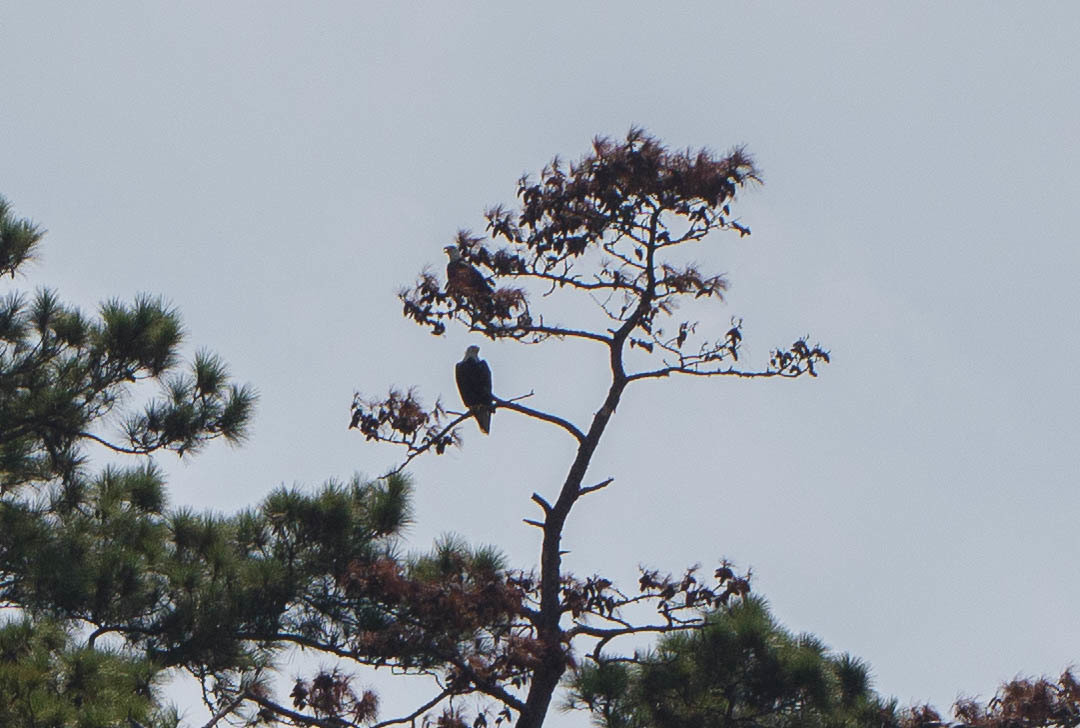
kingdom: Animalia
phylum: Chordata
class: Aves
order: Accipitriformes
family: Accipitridae
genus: Haliaeetus
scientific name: Haliaeetus leucocephalus
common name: Bald eagle
